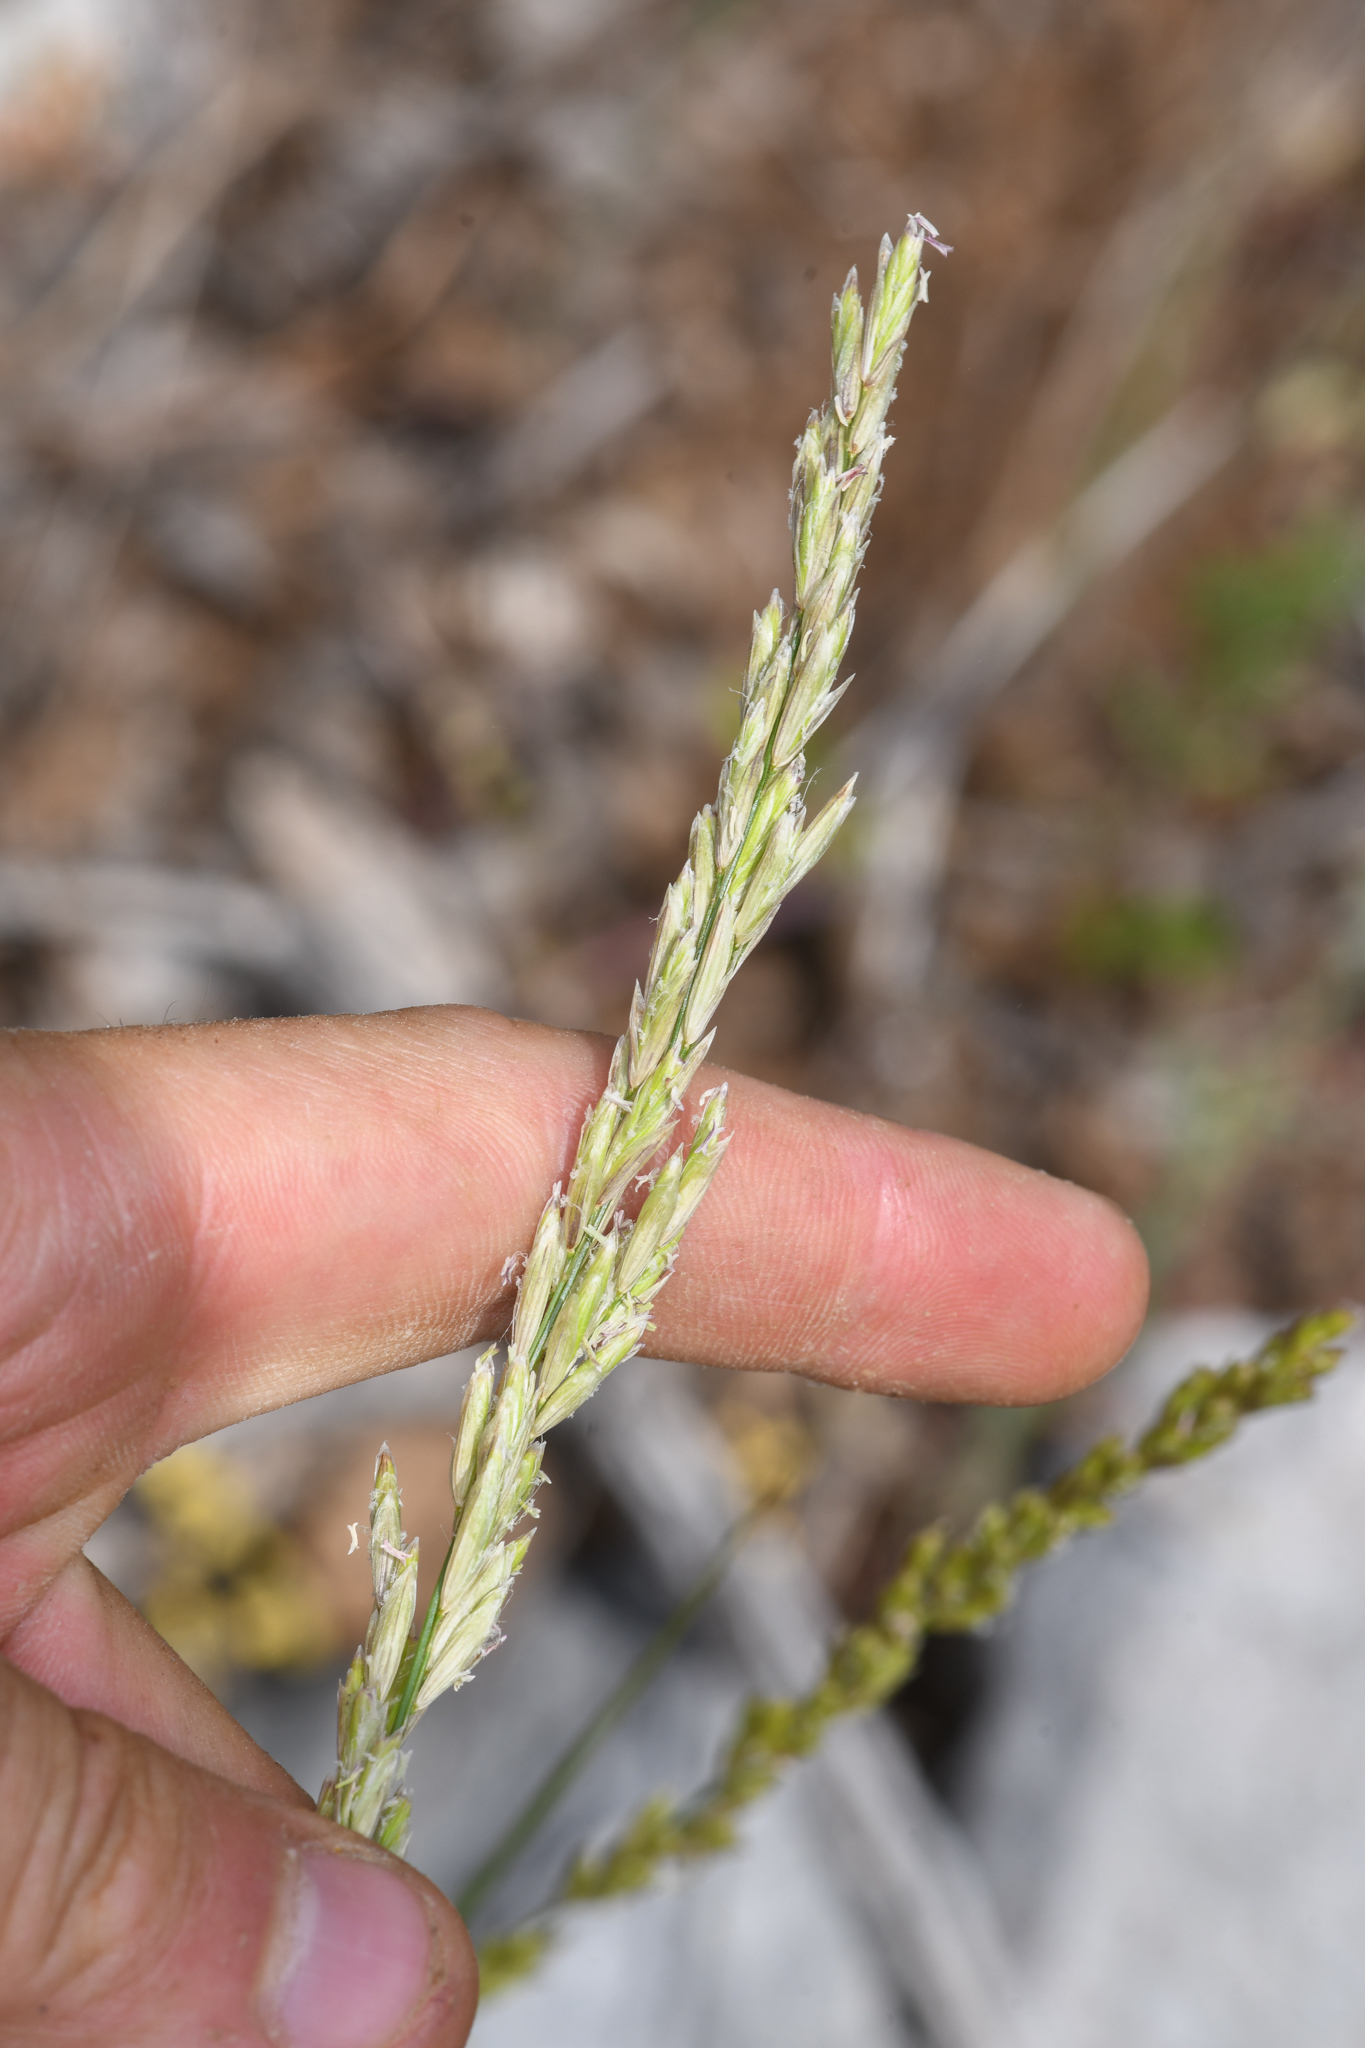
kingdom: Plantae
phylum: Tracheophyta
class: Liliopsida
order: Poales
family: Poaceae
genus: Melica
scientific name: Melica californica
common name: California melic
